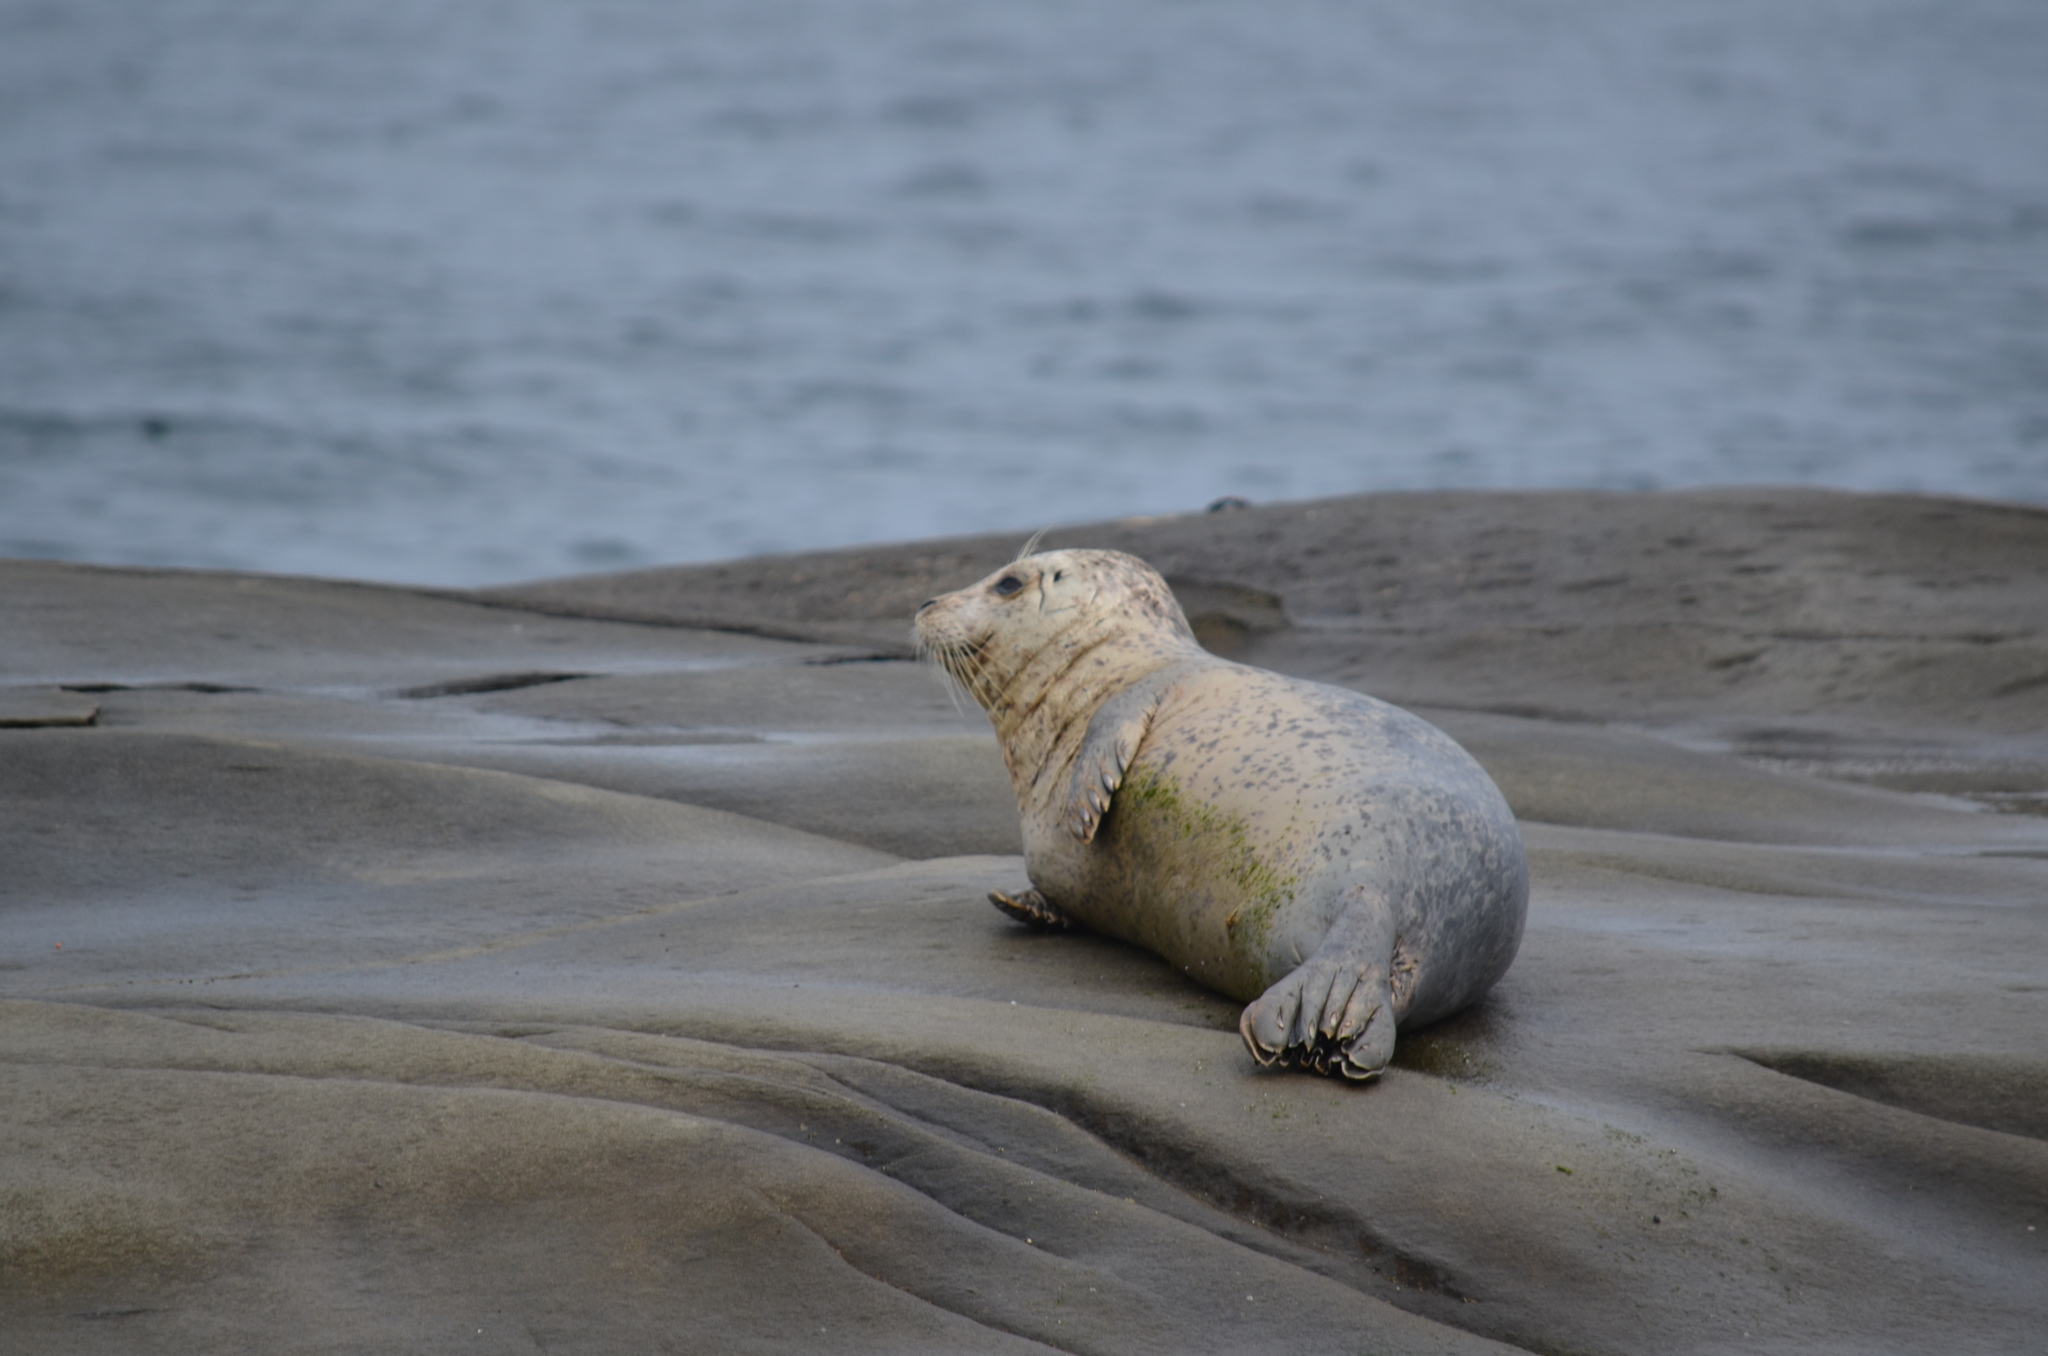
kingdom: Animalia
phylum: Chordata
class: Mammalia
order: Carnivora
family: Phocidae
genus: Phoca
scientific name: Phoca vitulina
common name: Harbor seal
